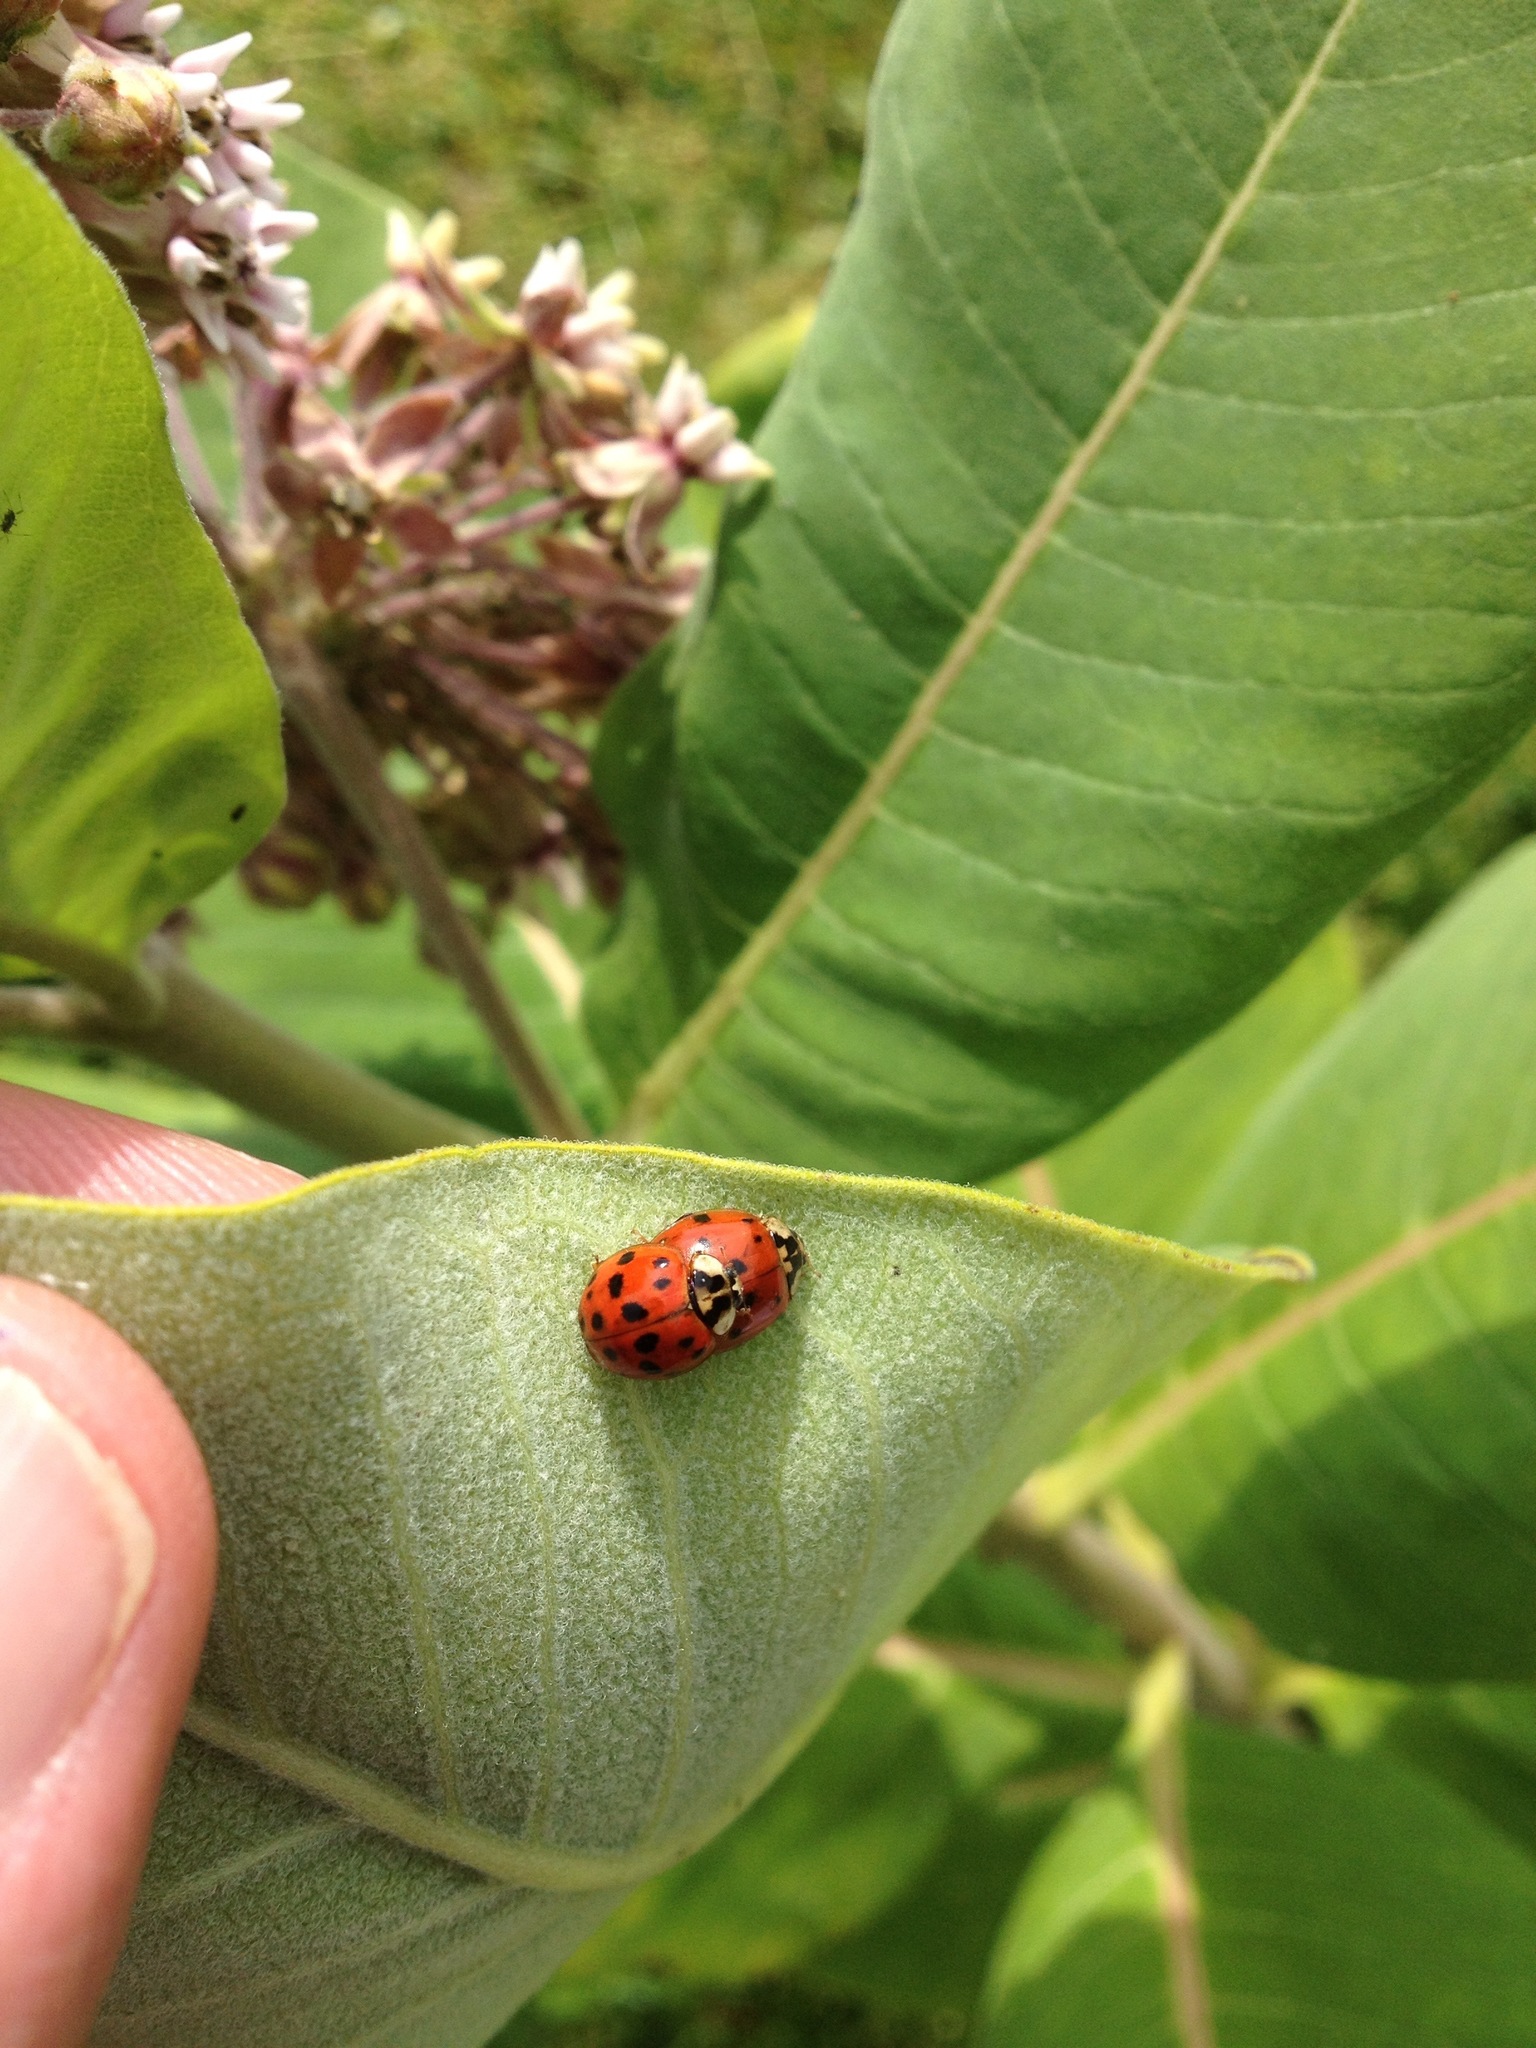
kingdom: Animalia
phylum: Arthropoda
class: Insecta
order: Coleoptera
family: Coccinellidae
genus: Harmonia
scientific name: Harmonia axyridis
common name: Harlequin ladybird
